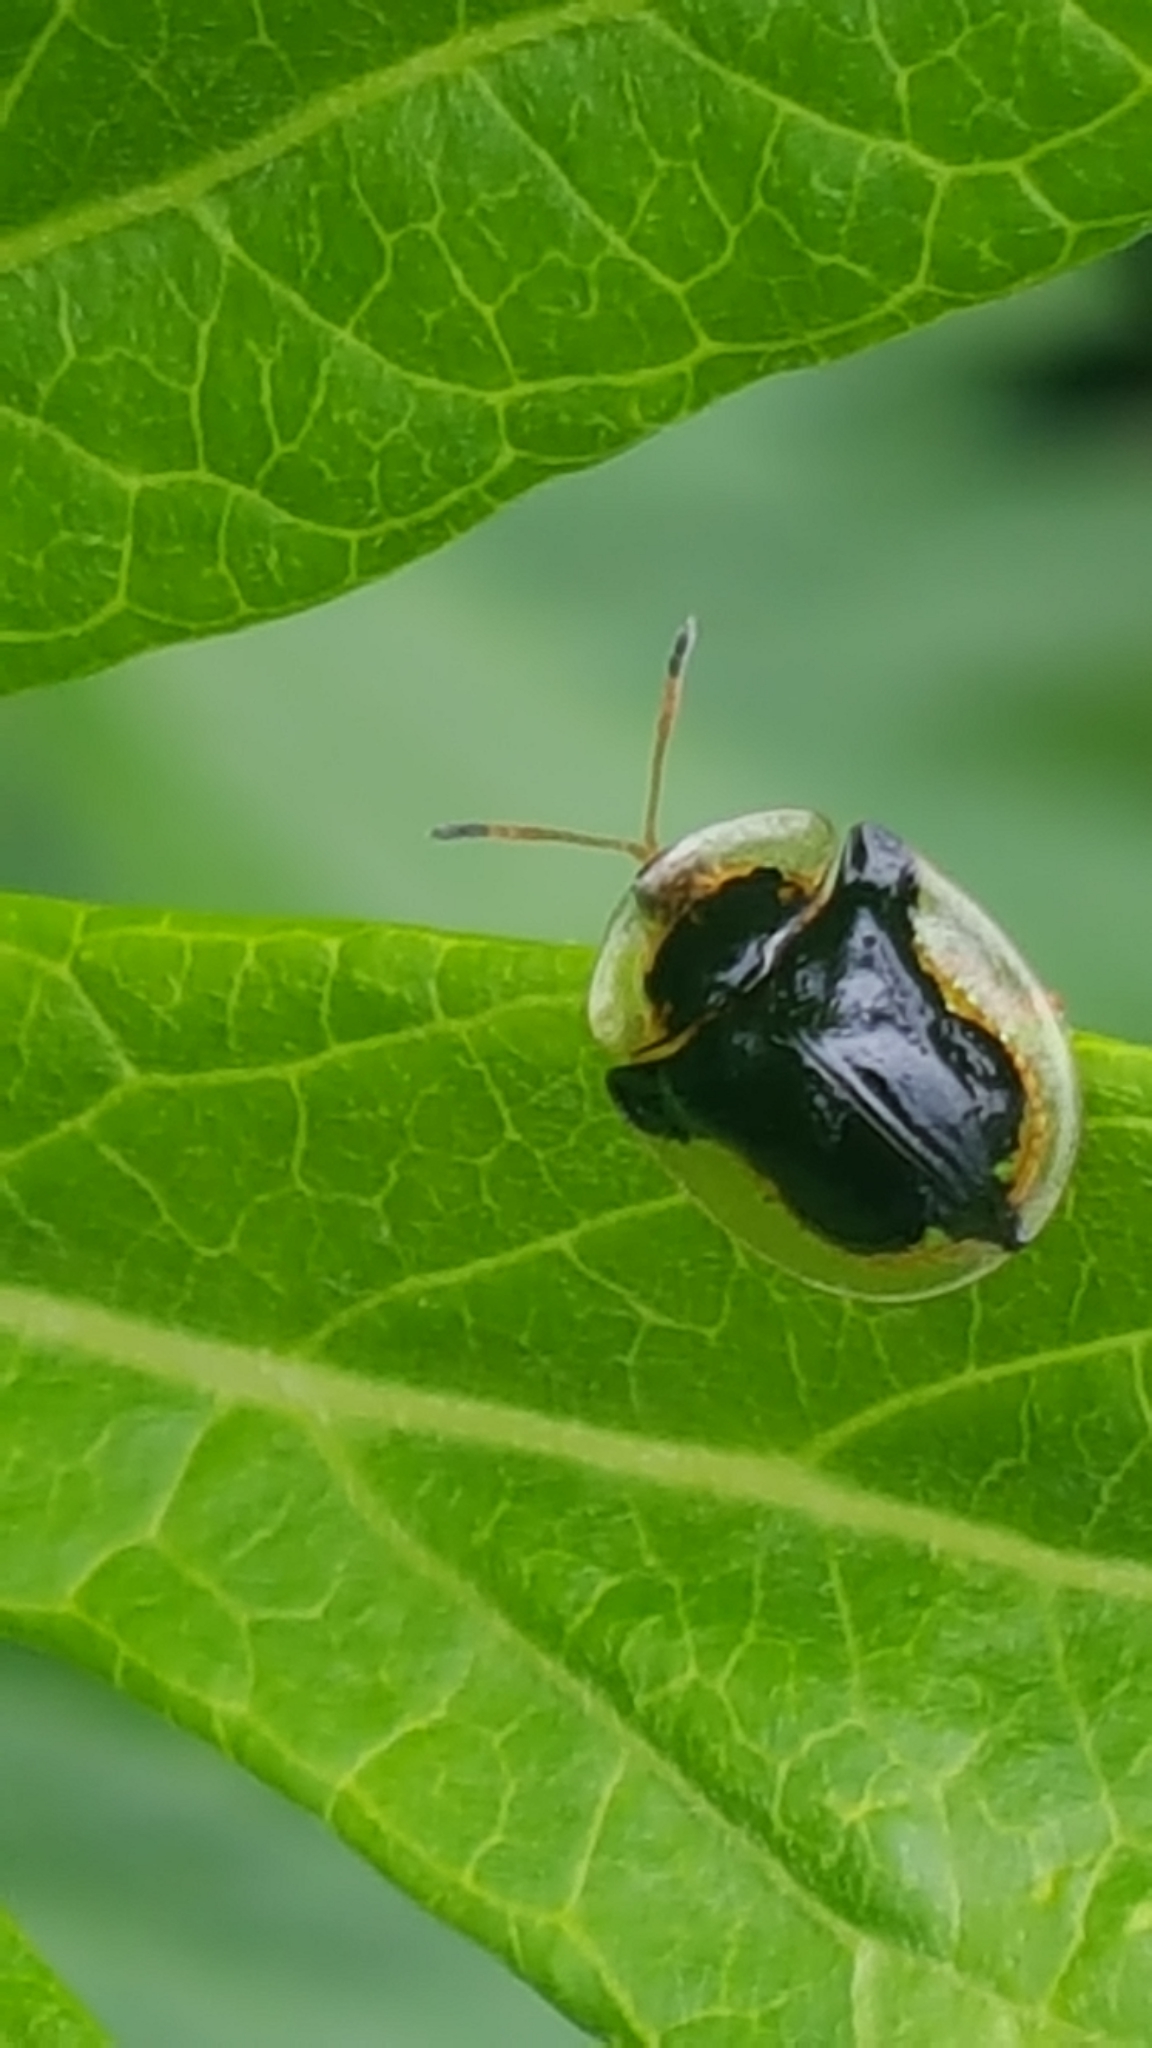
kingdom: Animalia
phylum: Arthropoda
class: Insecta
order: Coleoptera
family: Chrysomelidae
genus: Deloyala
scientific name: Deloyala guttata
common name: Mottled tortoise beetle
